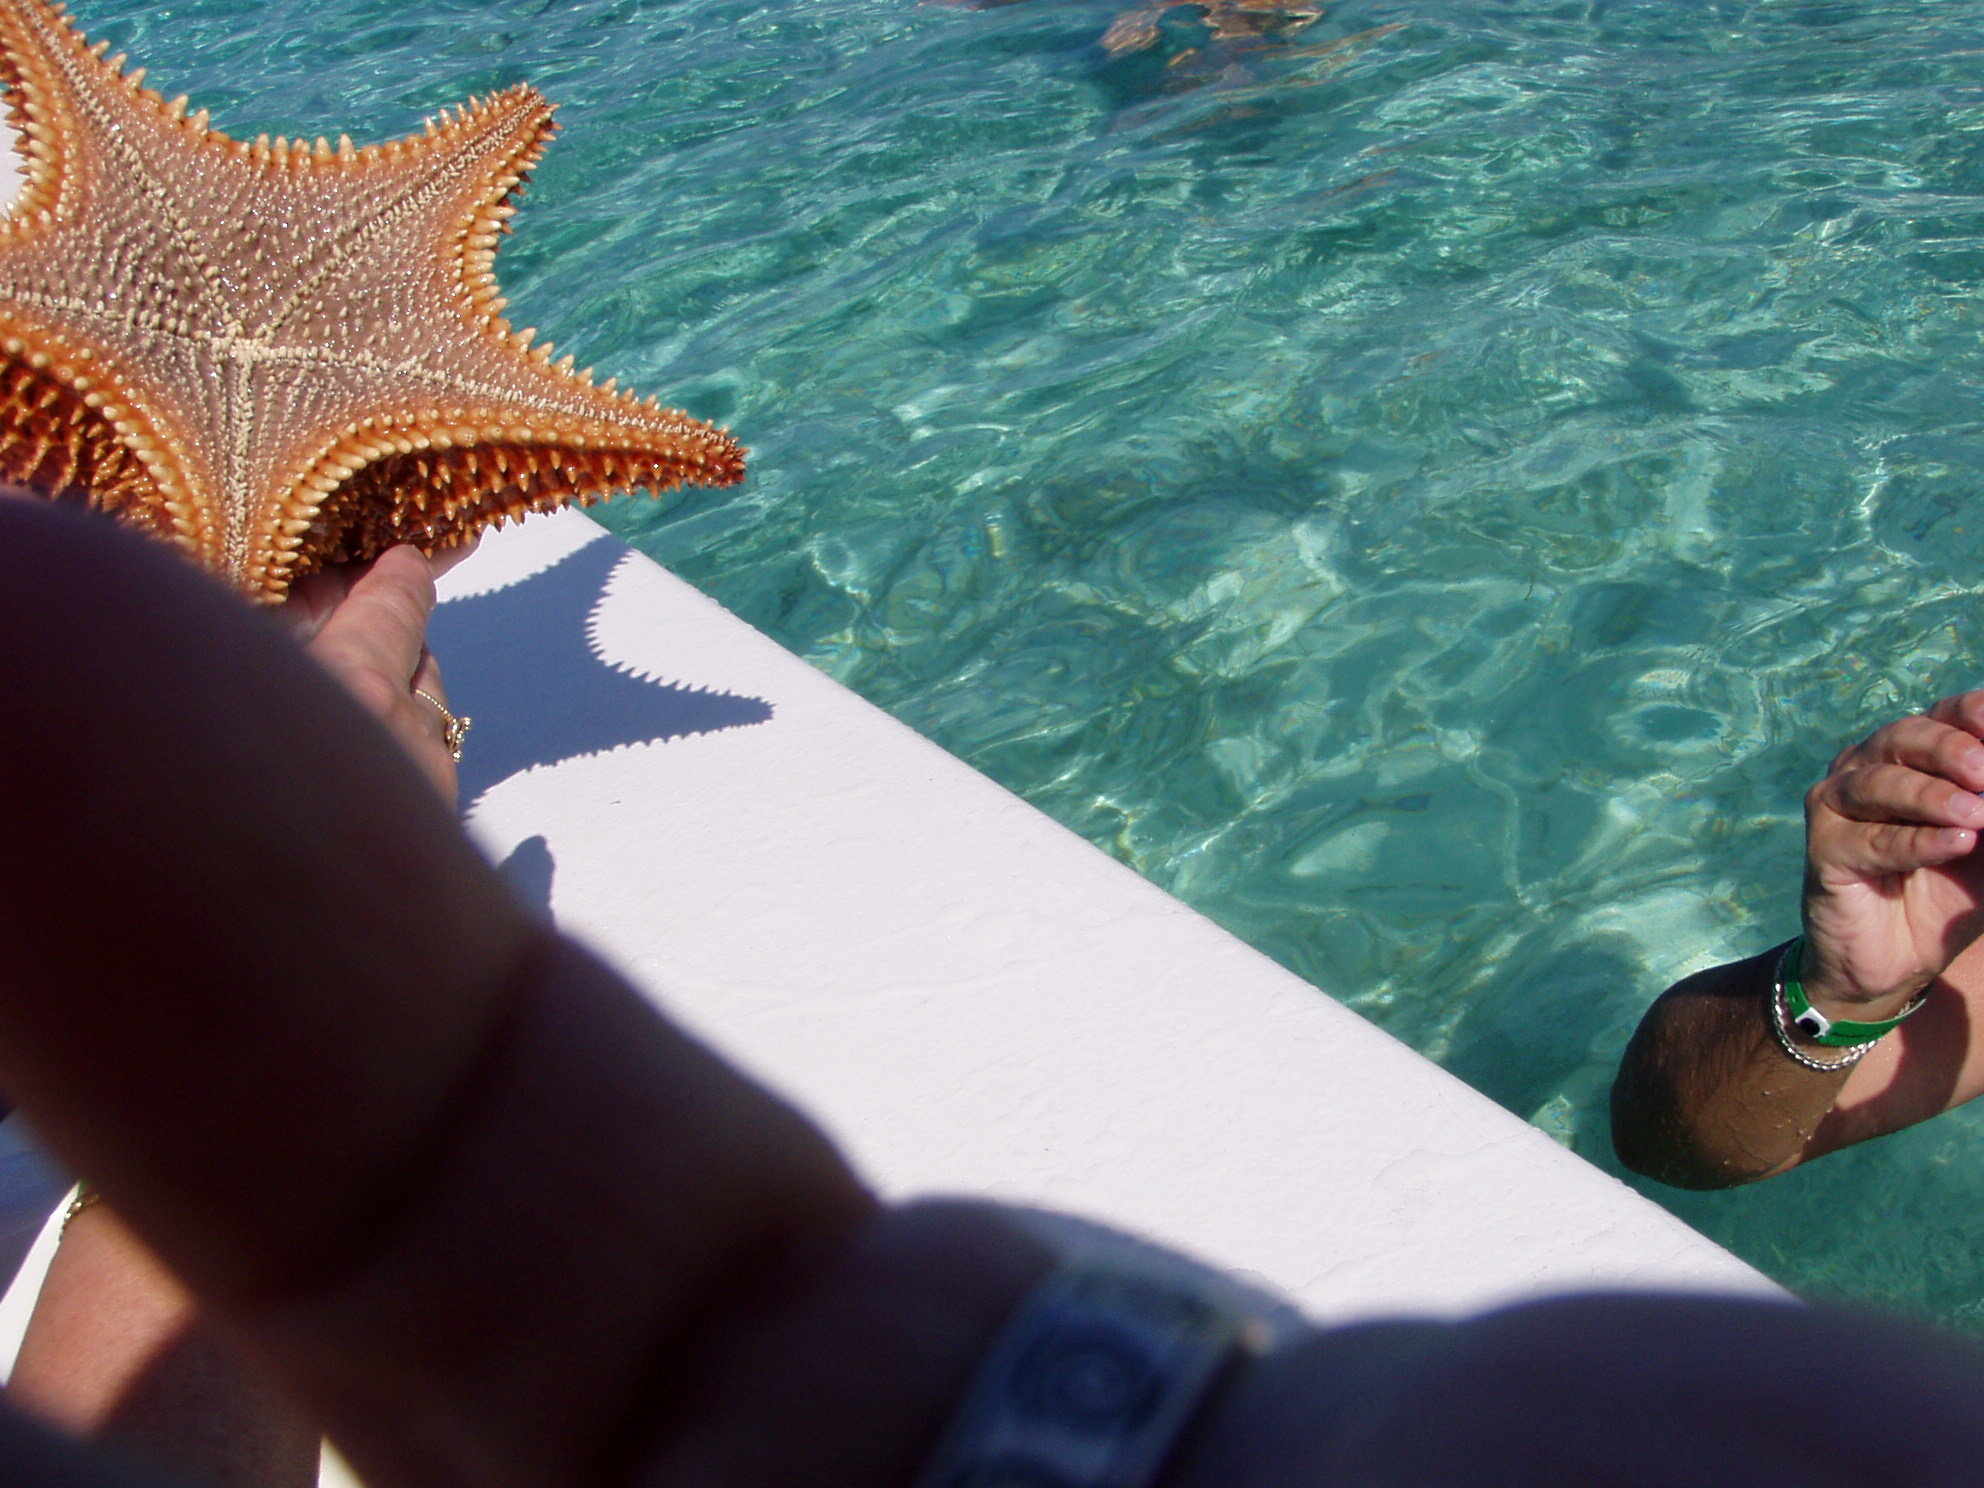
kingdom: Animalia
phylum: Echinodermata
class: Asteroidea
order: Valvatida
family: Oreasteridae
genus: Oreaster
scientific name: Oreaster reticulatus
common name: Cushion sea star
